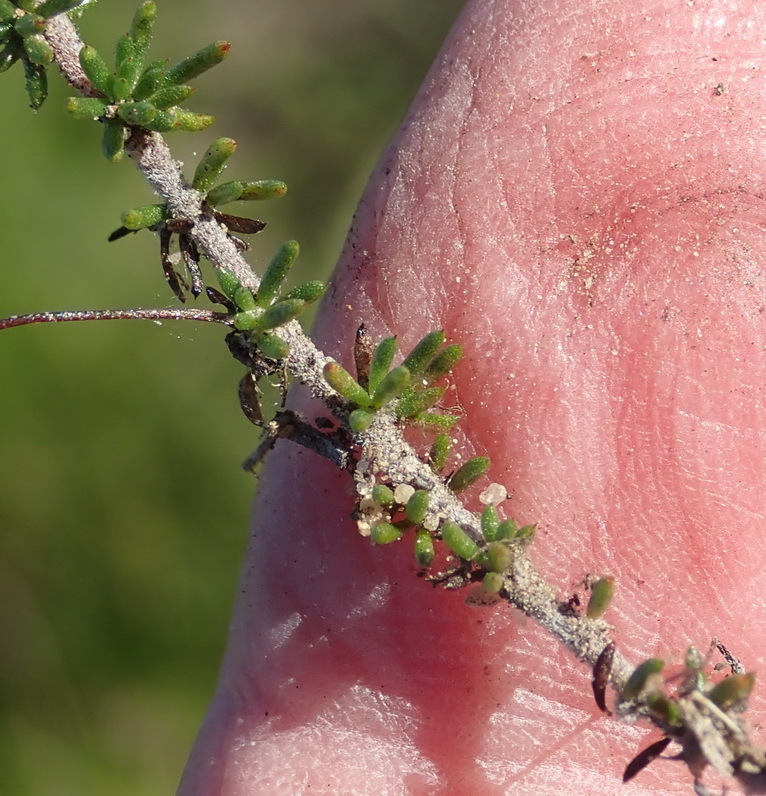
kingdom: Plantae
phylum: Tracheophyta
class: Magnoliopsida
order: Fabales
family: Fabaceae
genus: Aspalathus
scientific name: Aspalathus tenuissima
